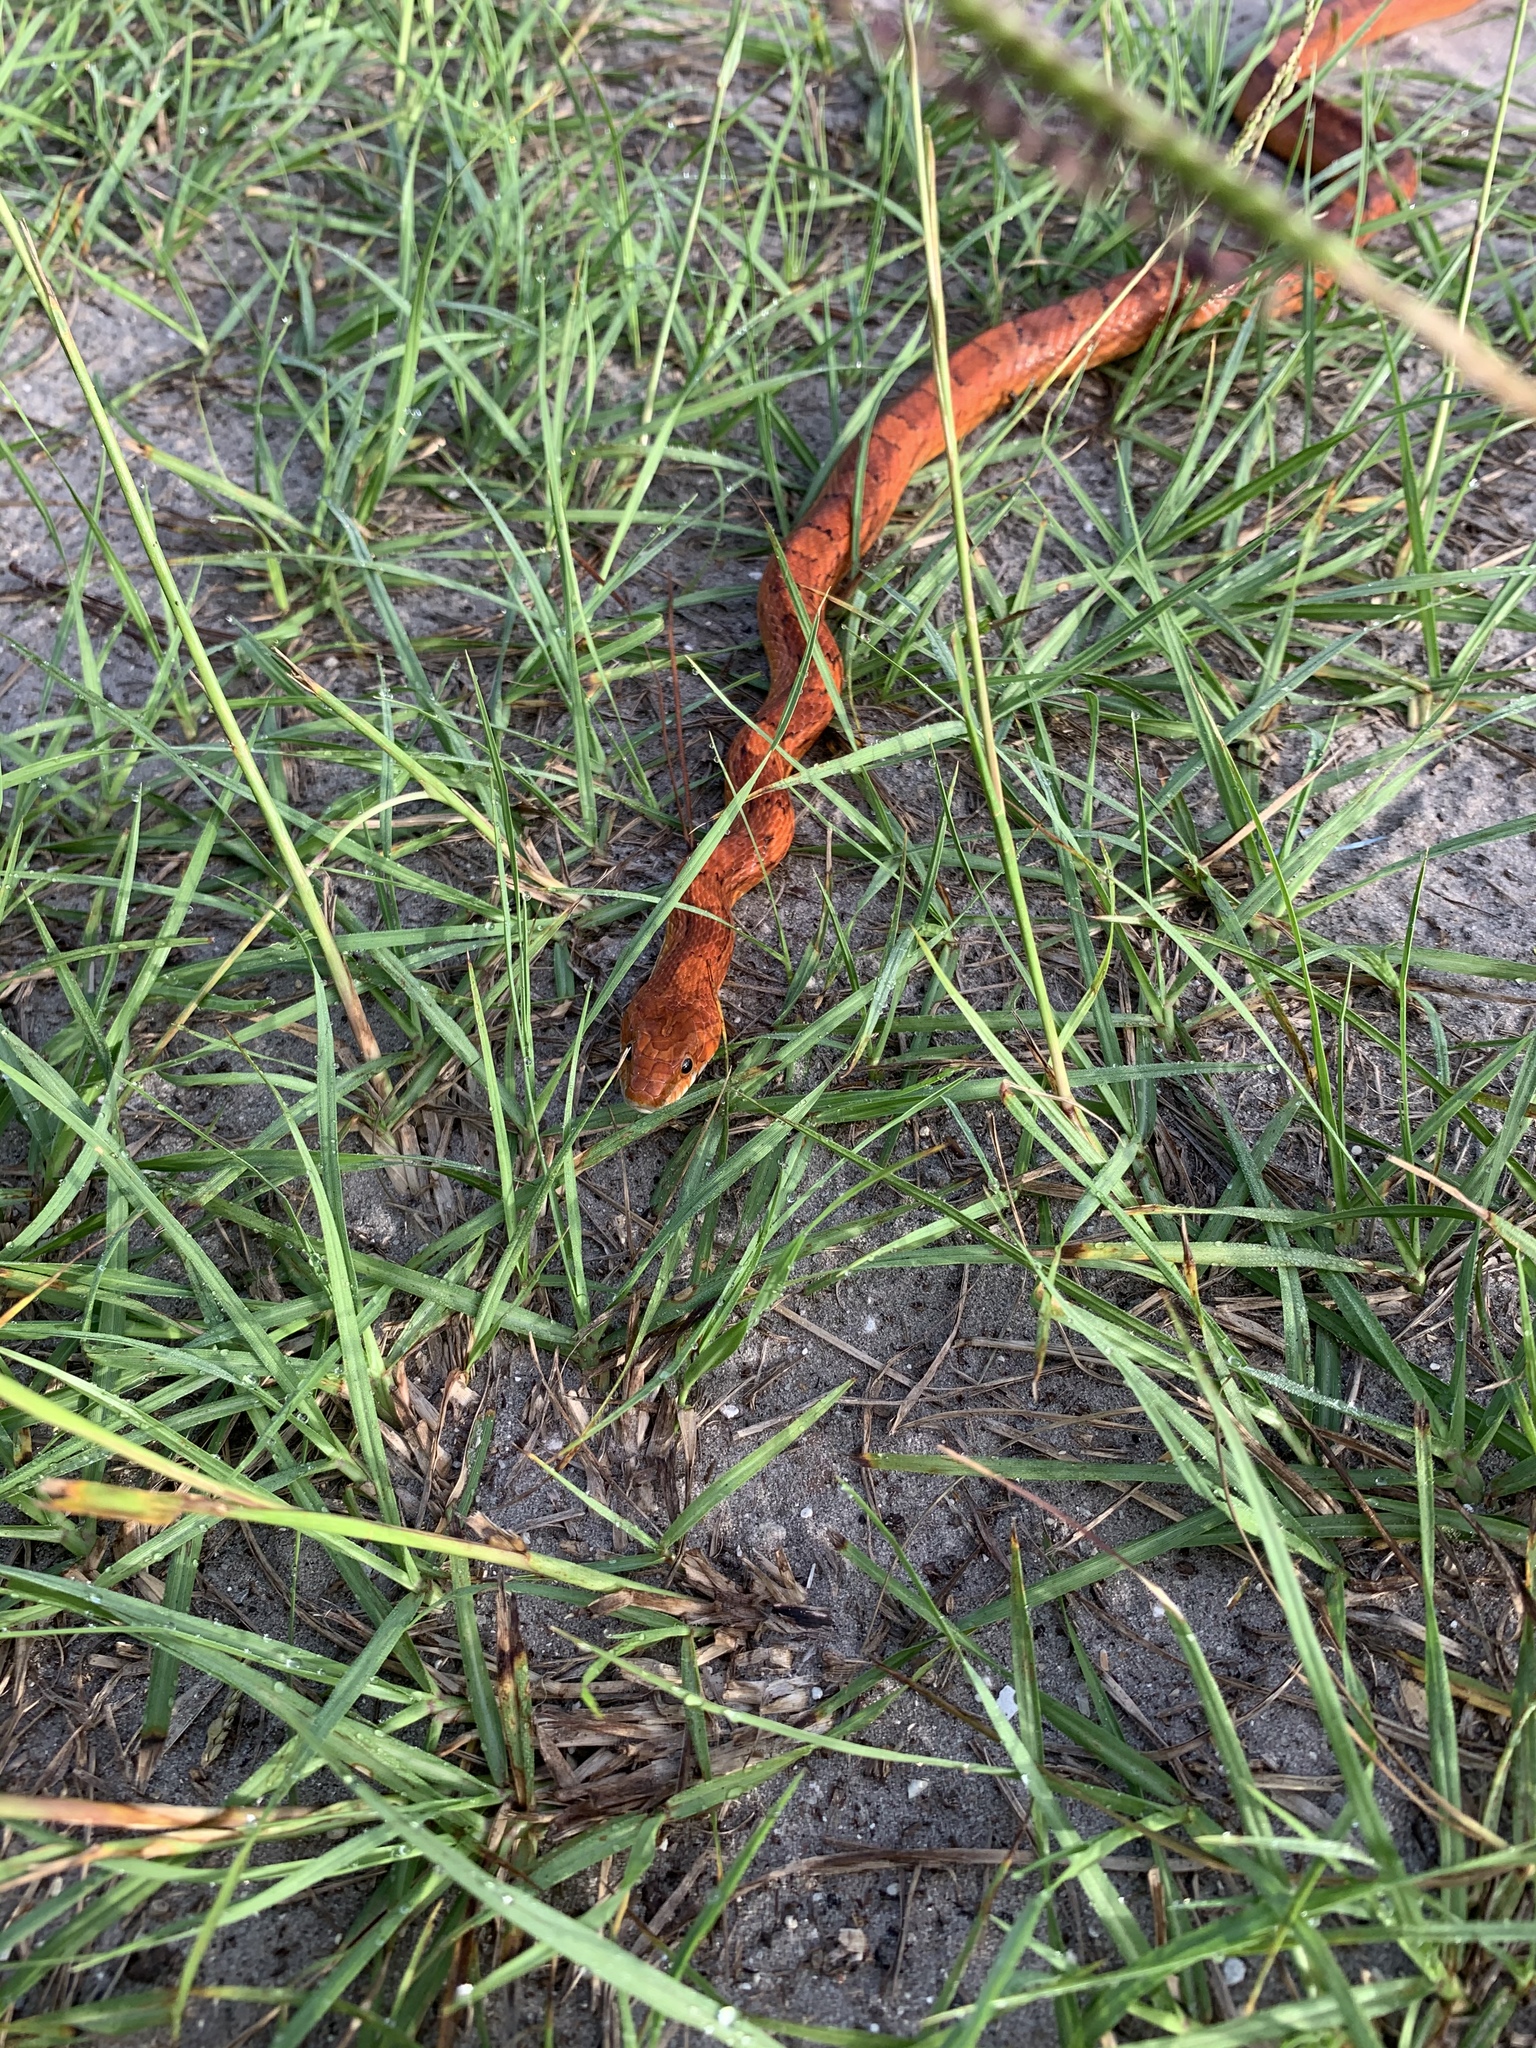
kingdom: Animalia
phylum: Chordata
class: Squamata
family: Colubridae
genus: Pantherophis
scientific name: Pantherophis guttatus
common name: Red cornsnake
